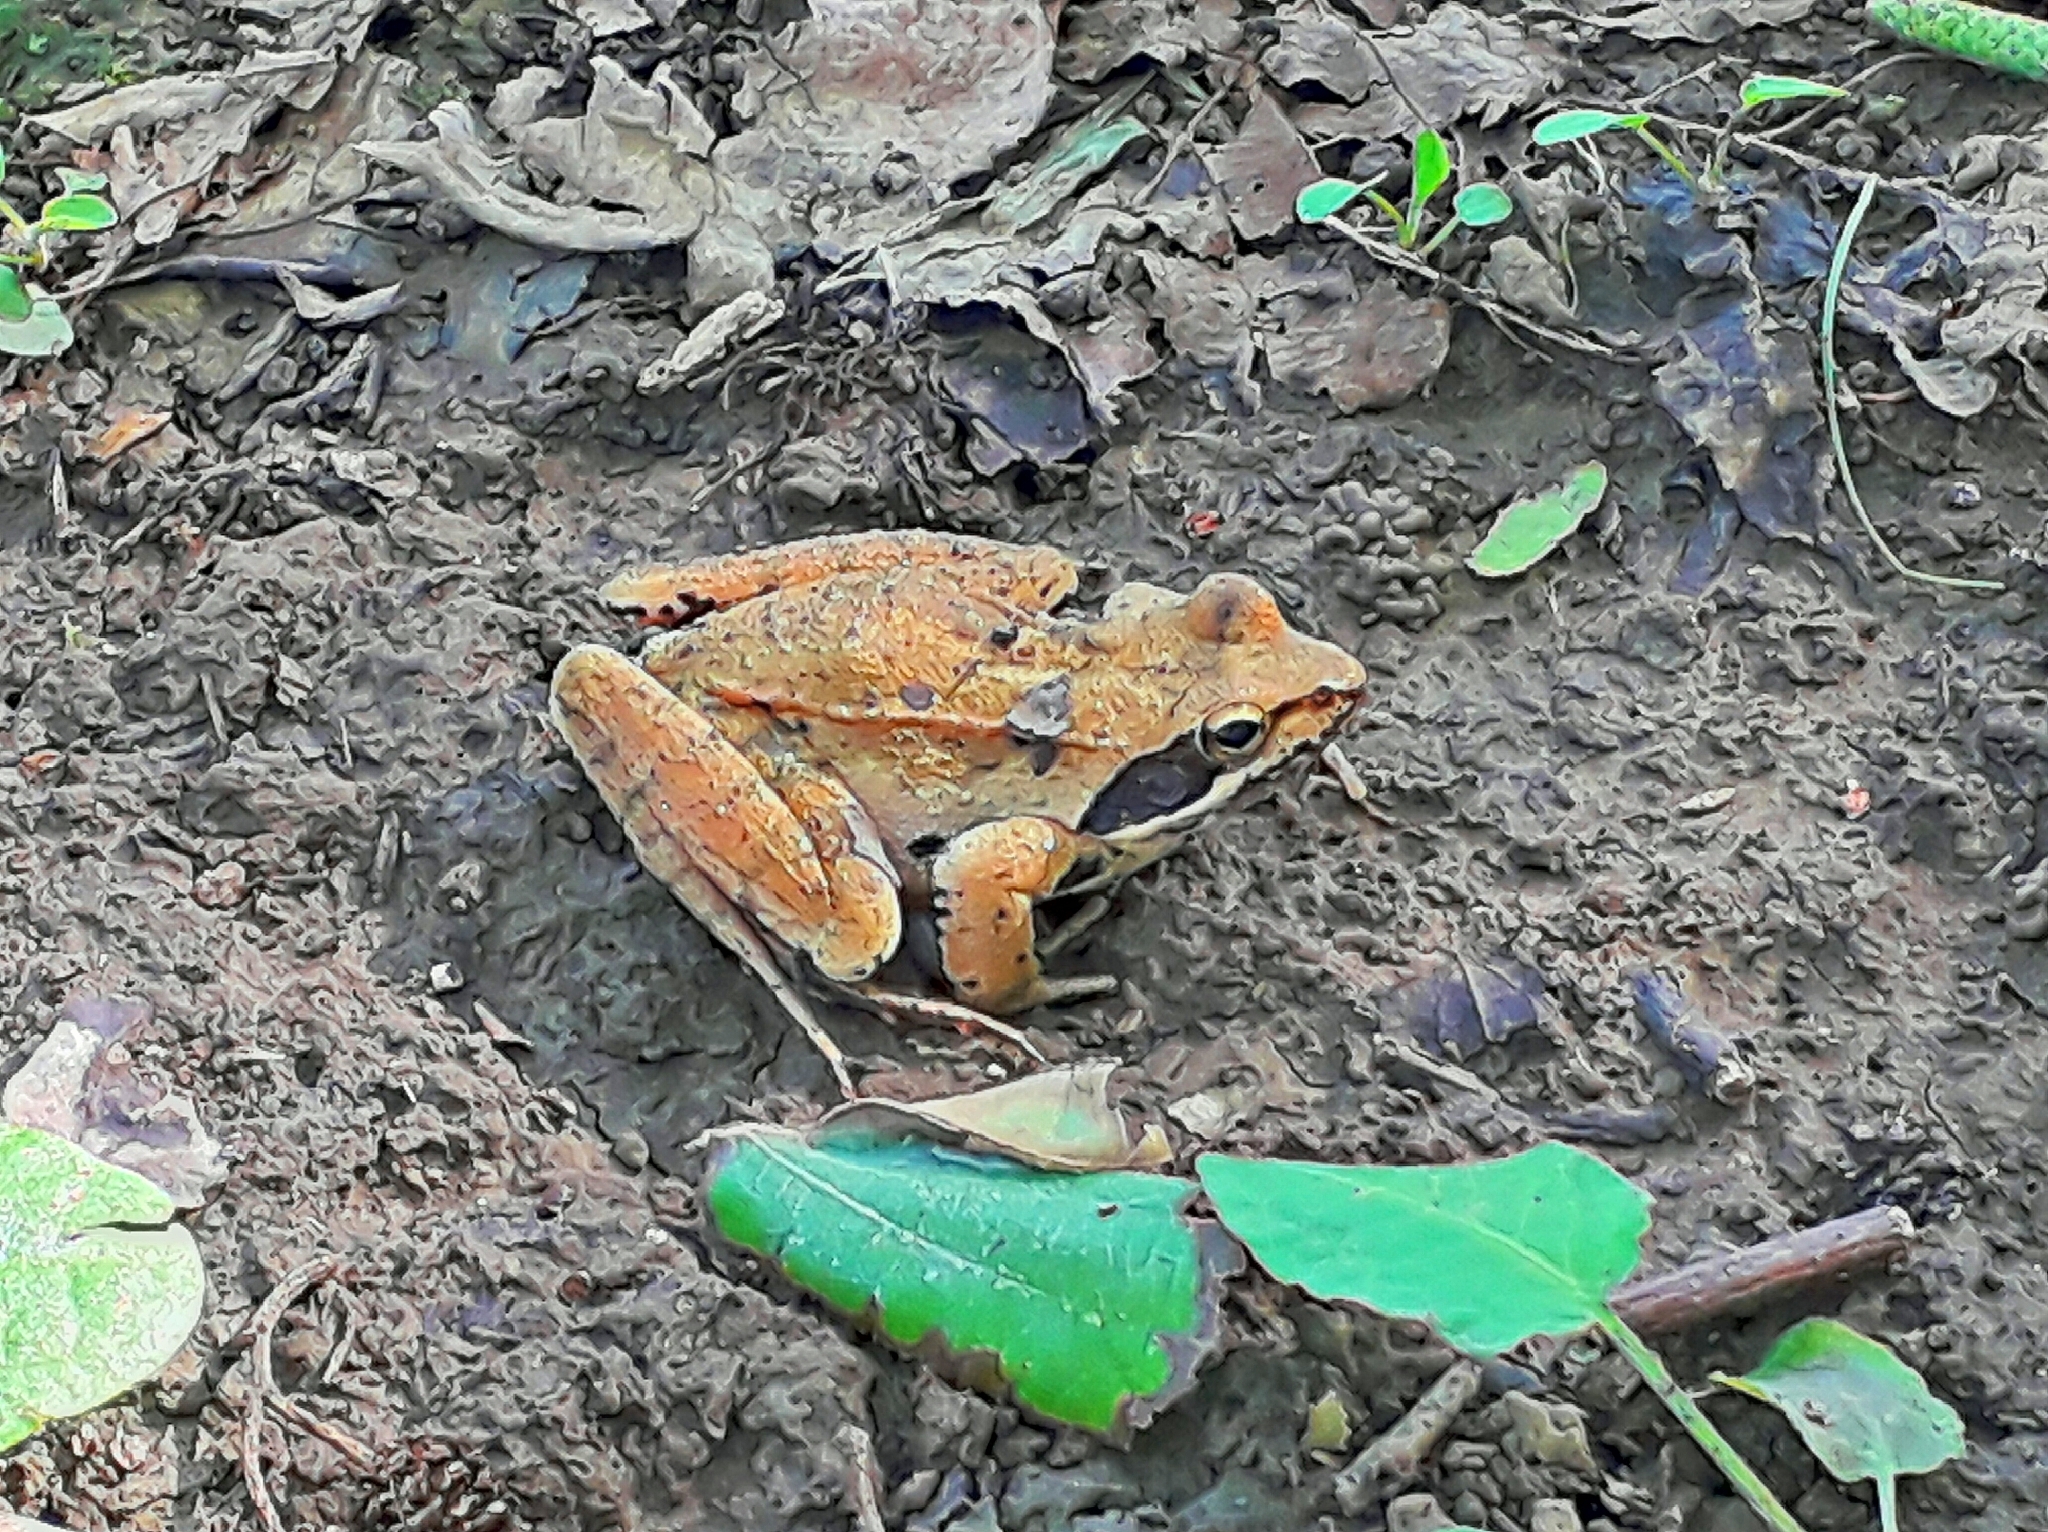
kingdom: Animalia
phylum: Chordata
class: Amphibia
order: Anura
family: Ranidae
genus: Rana
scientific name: Rana pseudodalmatina
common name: Hyrcanian frog
